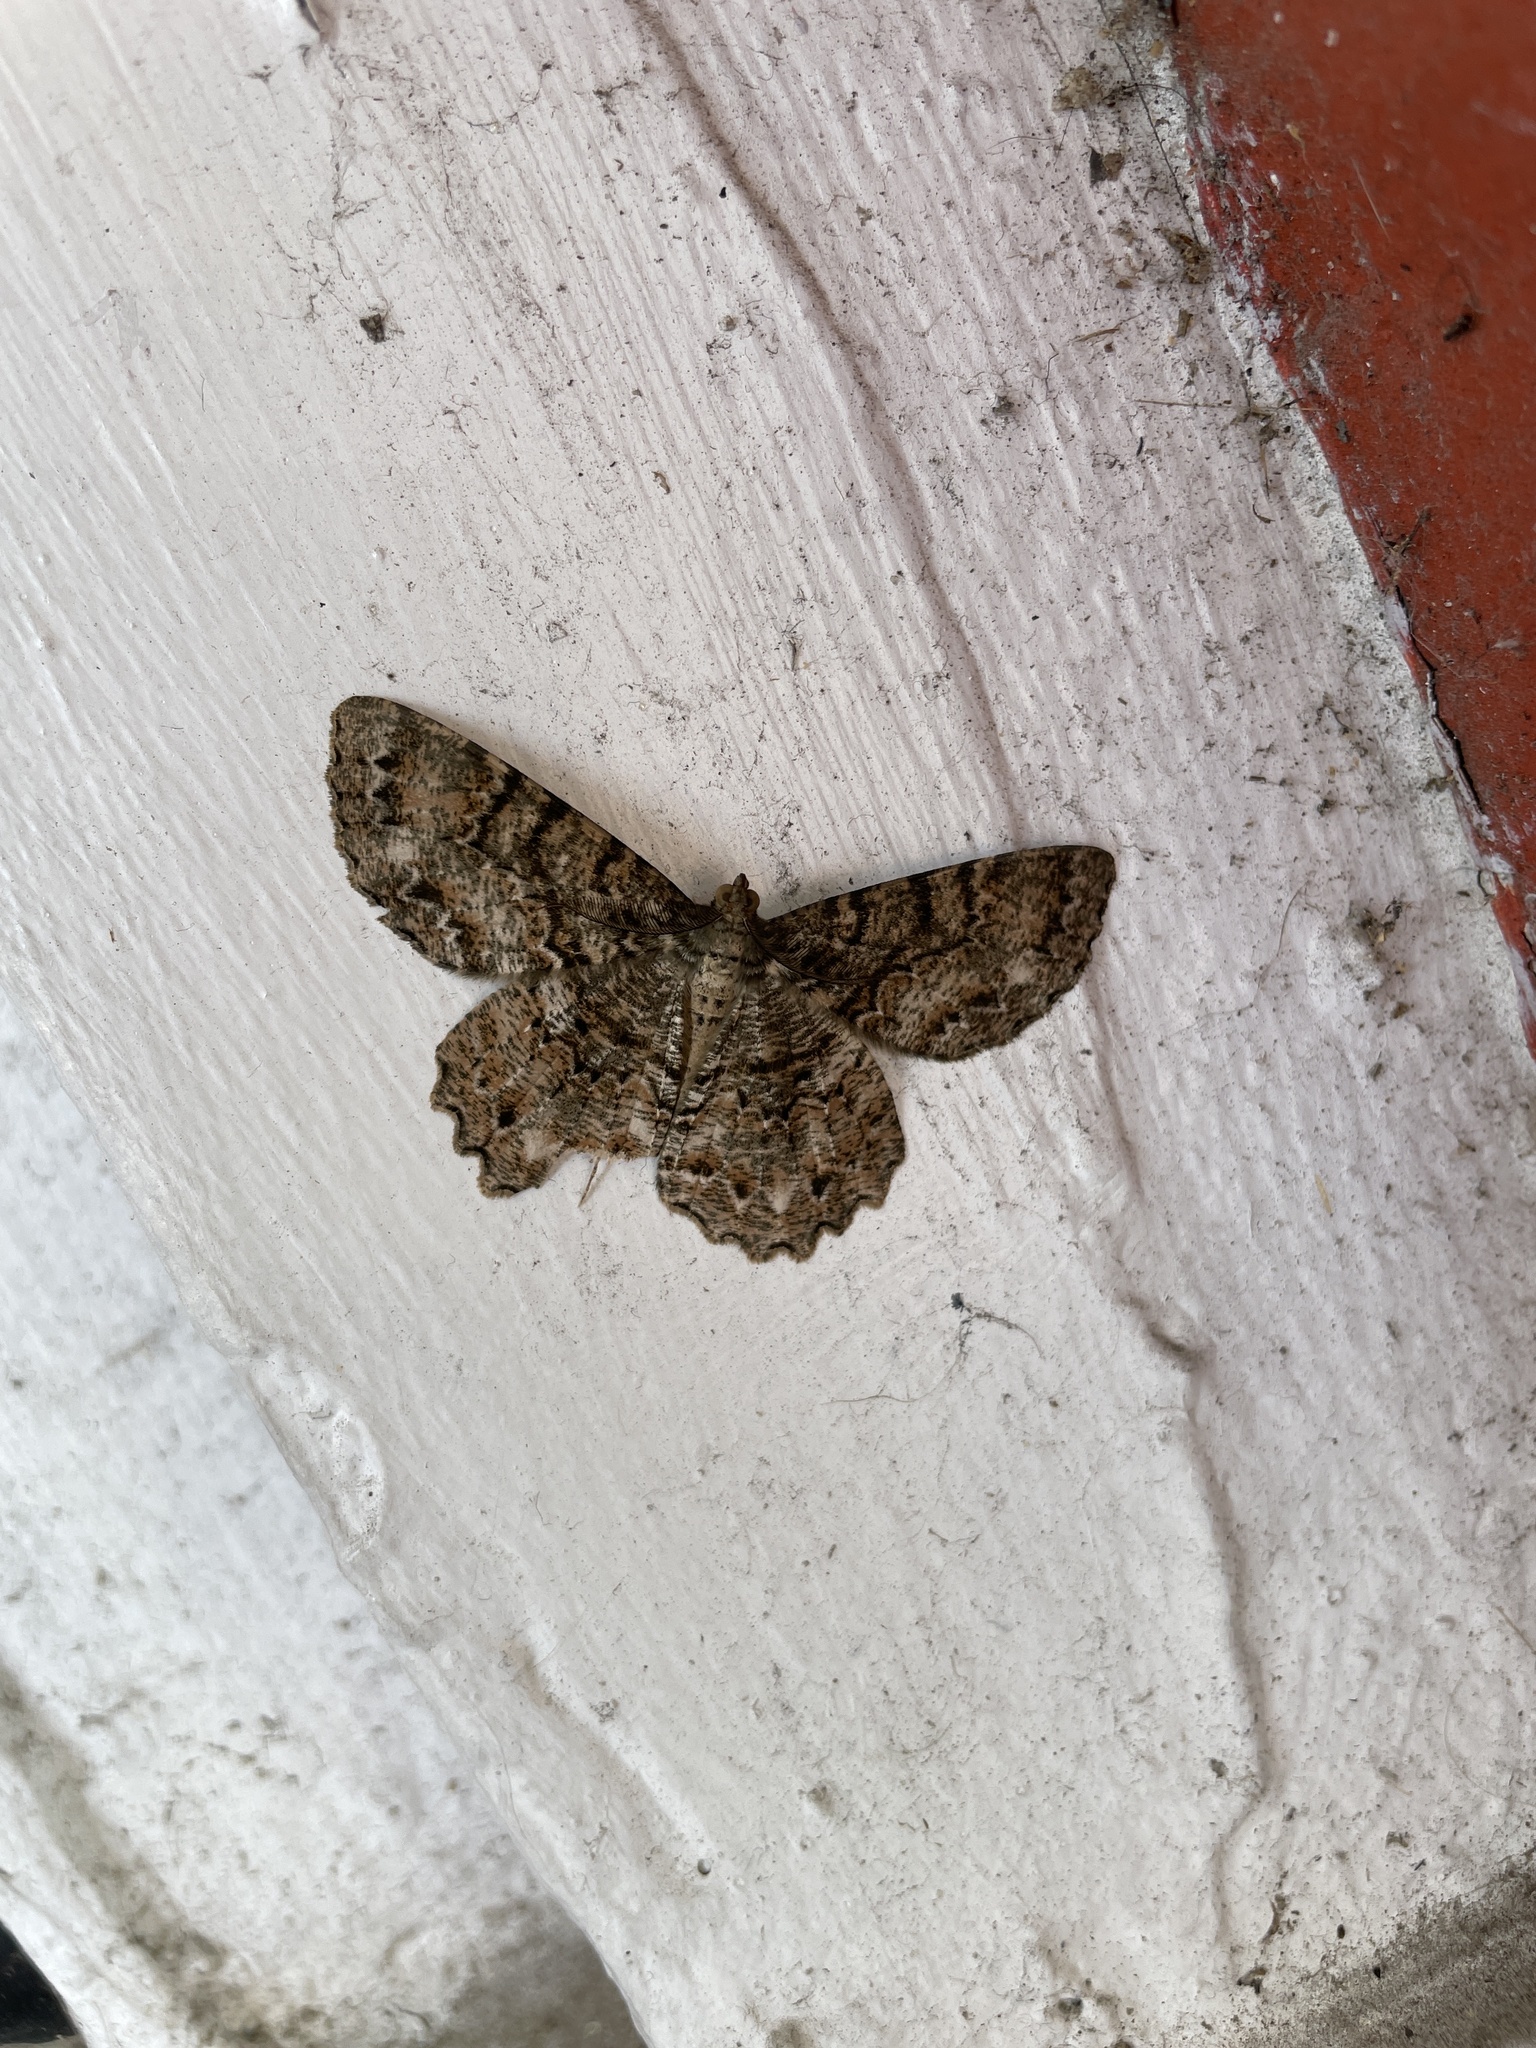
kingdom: Animalia
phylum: Arthropoda
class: Insecta
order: Lepidoptera
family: Geometridae
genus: Epimecis
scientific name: Epimecis hortaria
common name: Tulip-tree beauty
